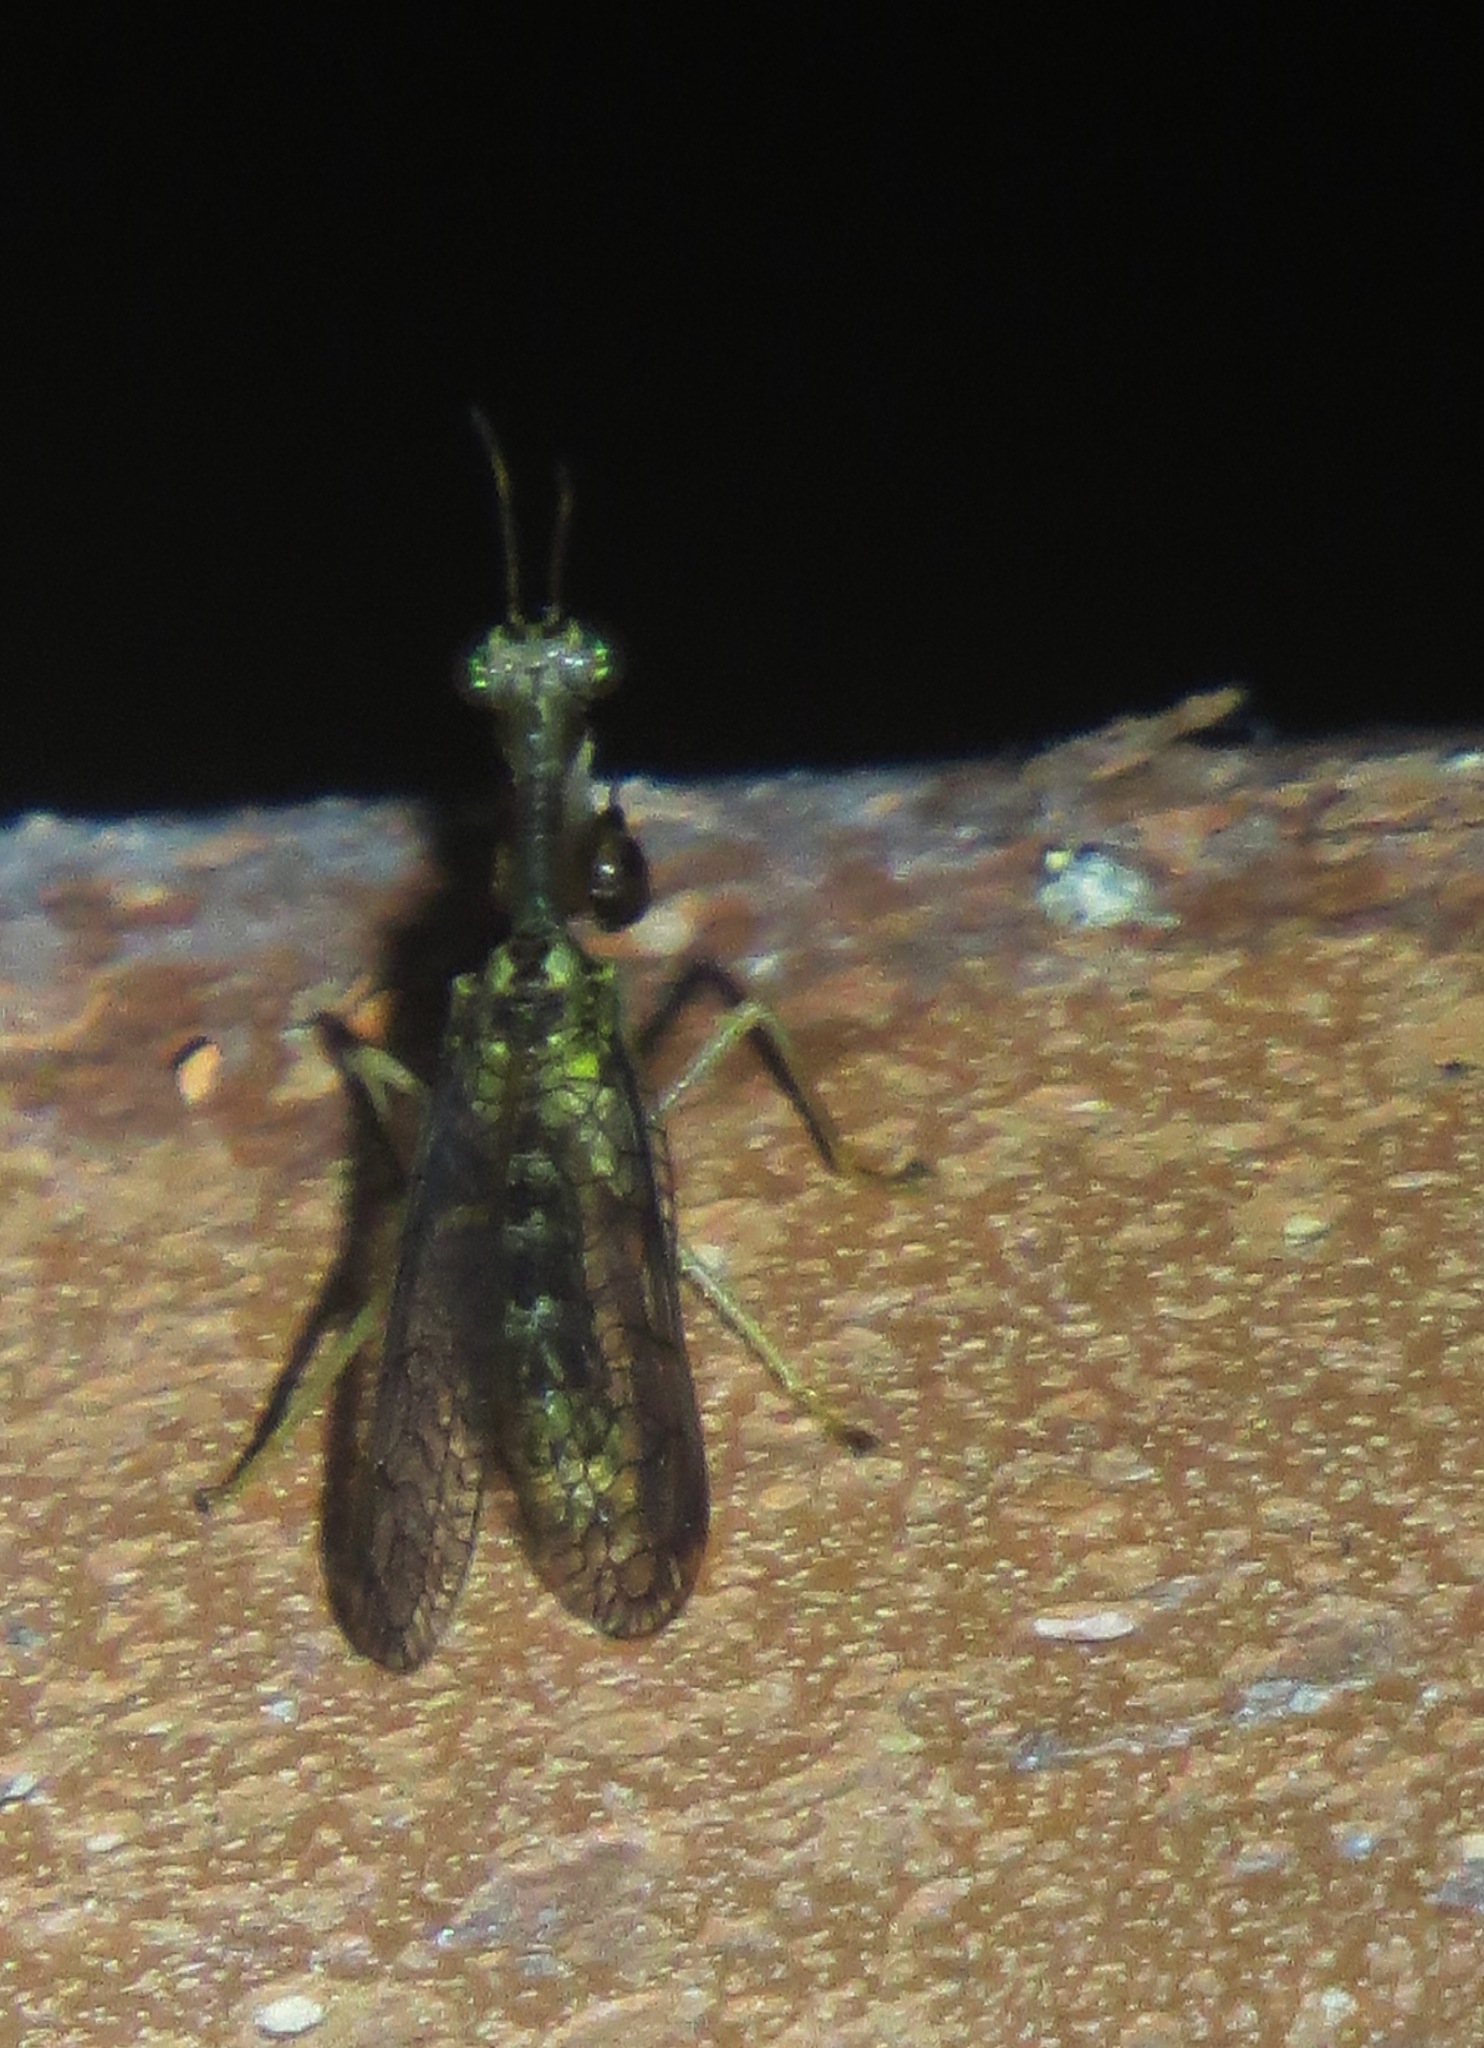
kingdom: Animalia
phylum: Arthropoda
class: Insecta
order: Neuroptera
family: Mantispidae
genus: Dicromantispa
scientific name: Dicromantispa sayi
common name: Say's mantidfly
